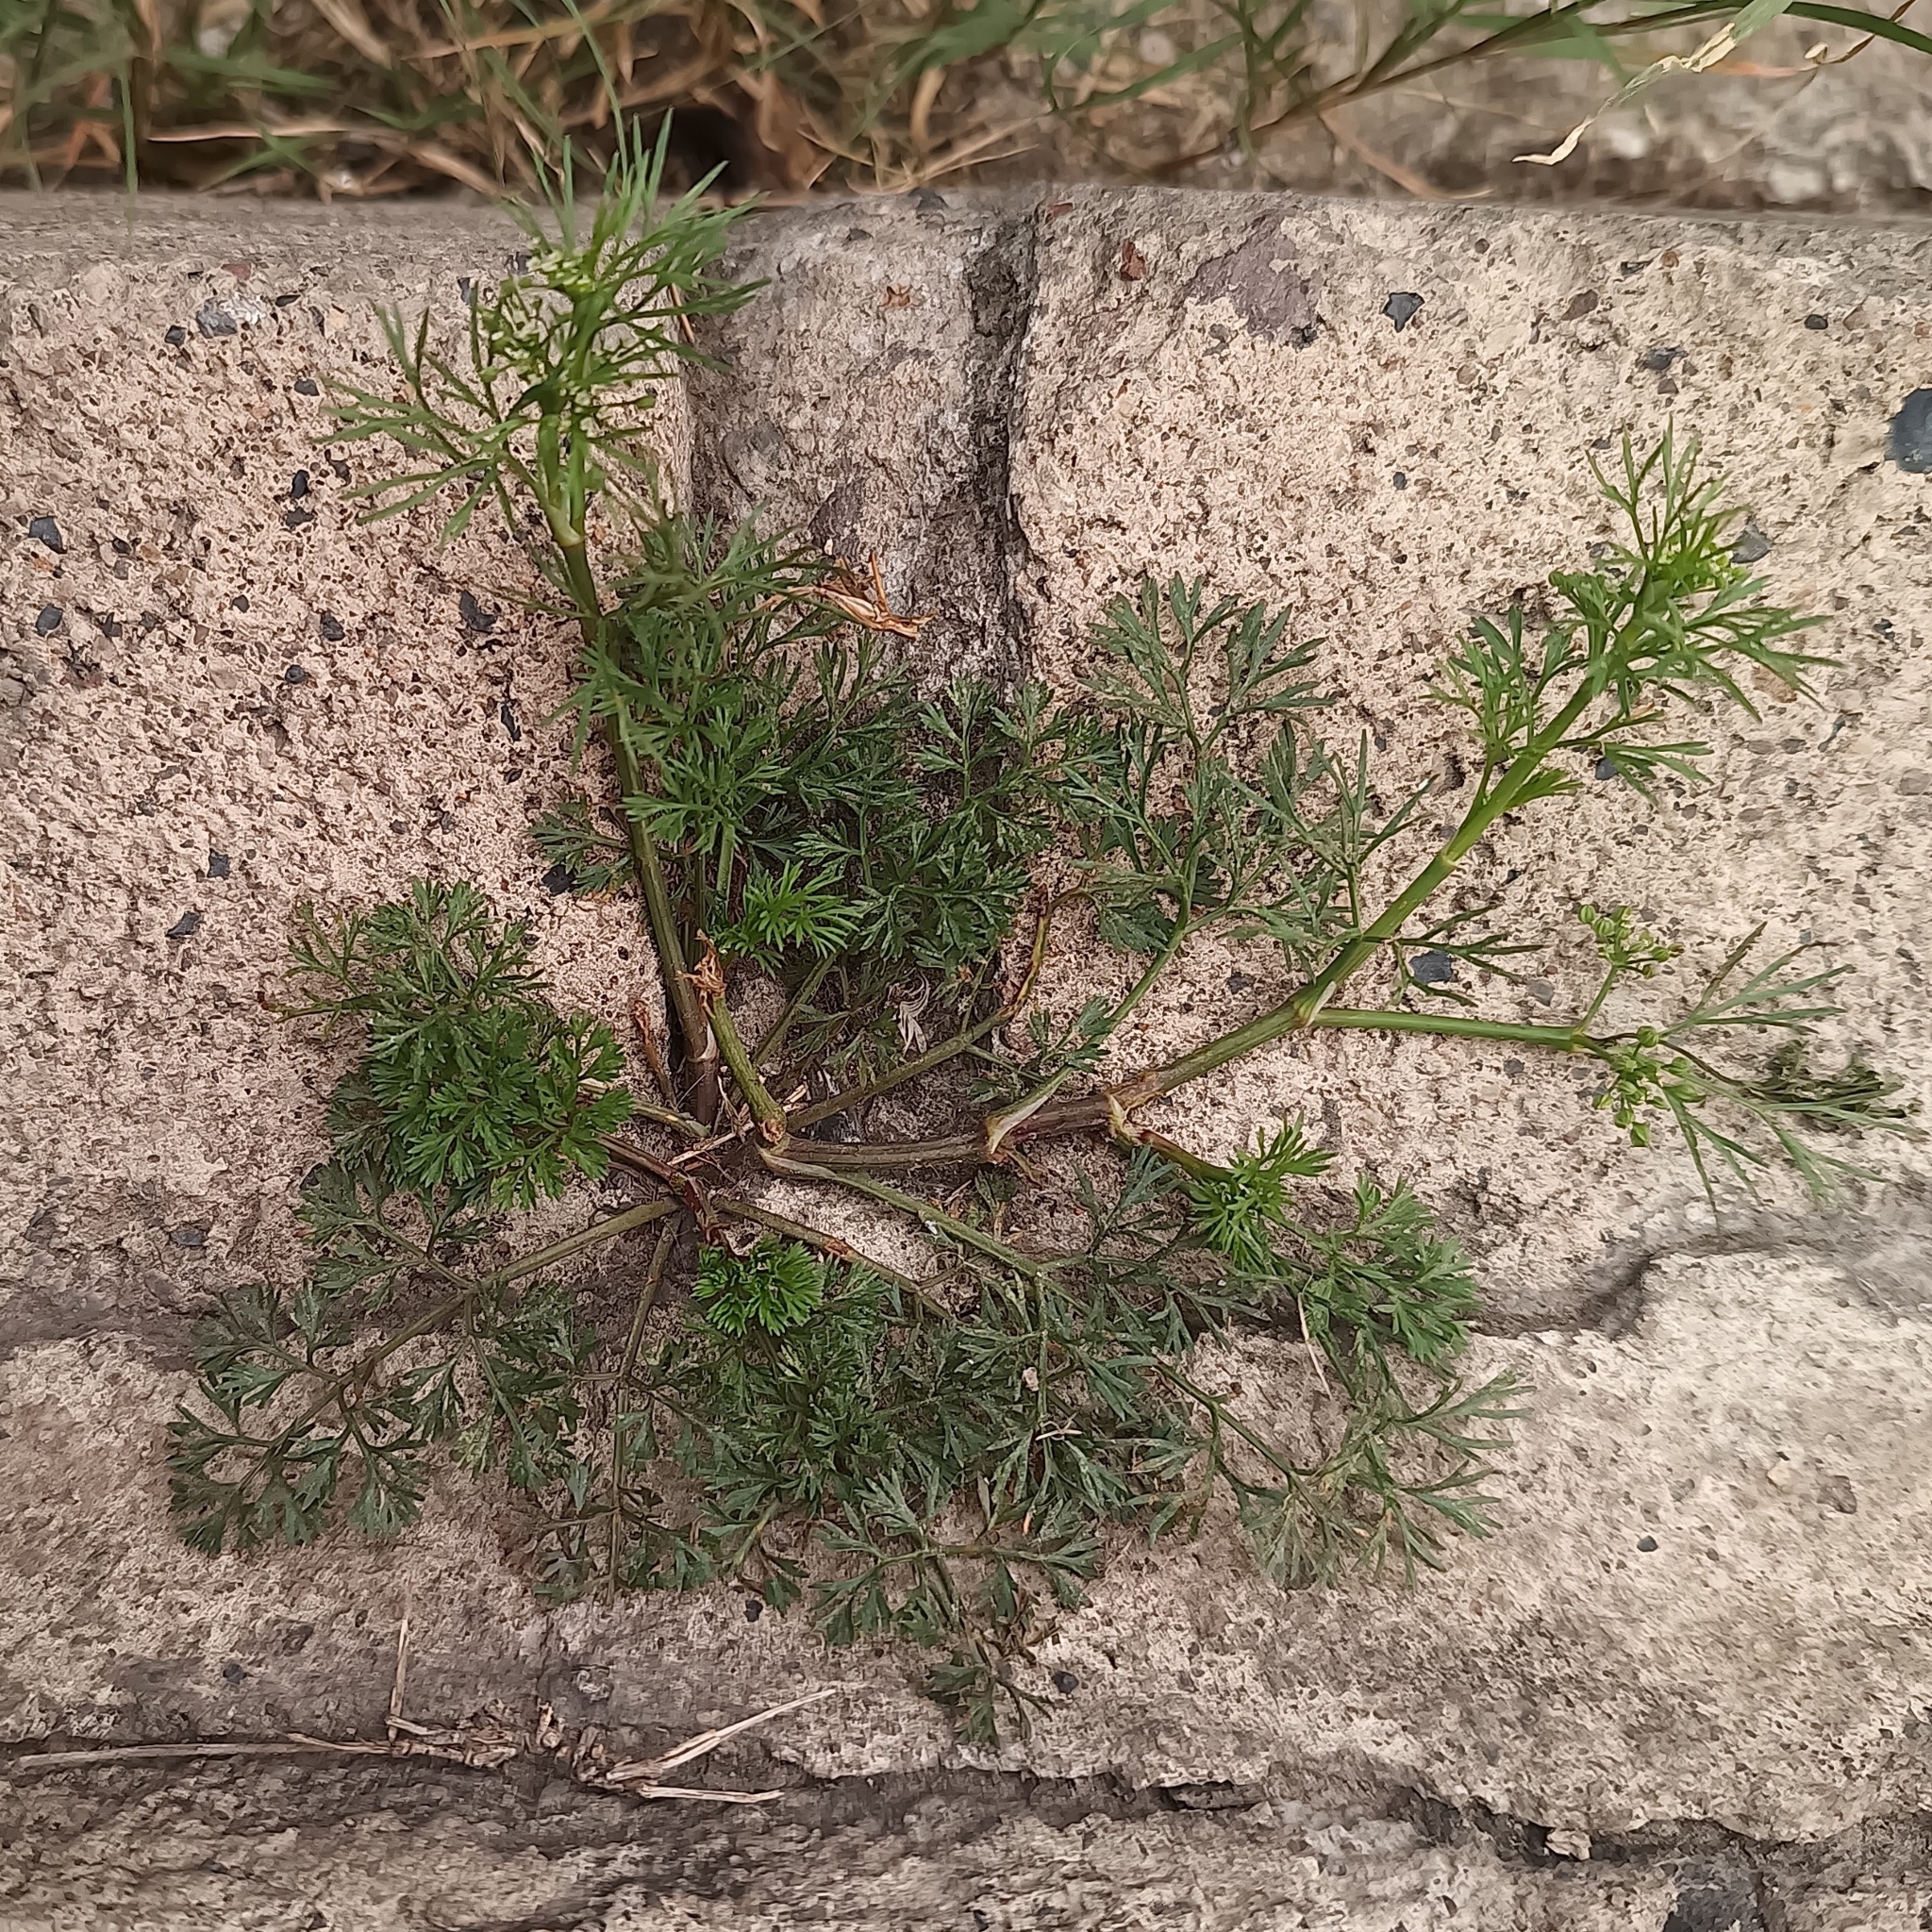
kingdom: Plantae
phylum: Tracheophyta
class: Magnoliopsida
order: Apiales
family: Apiaceae
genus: Cyclospermum
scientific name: Cyclospermum leptophyllum
